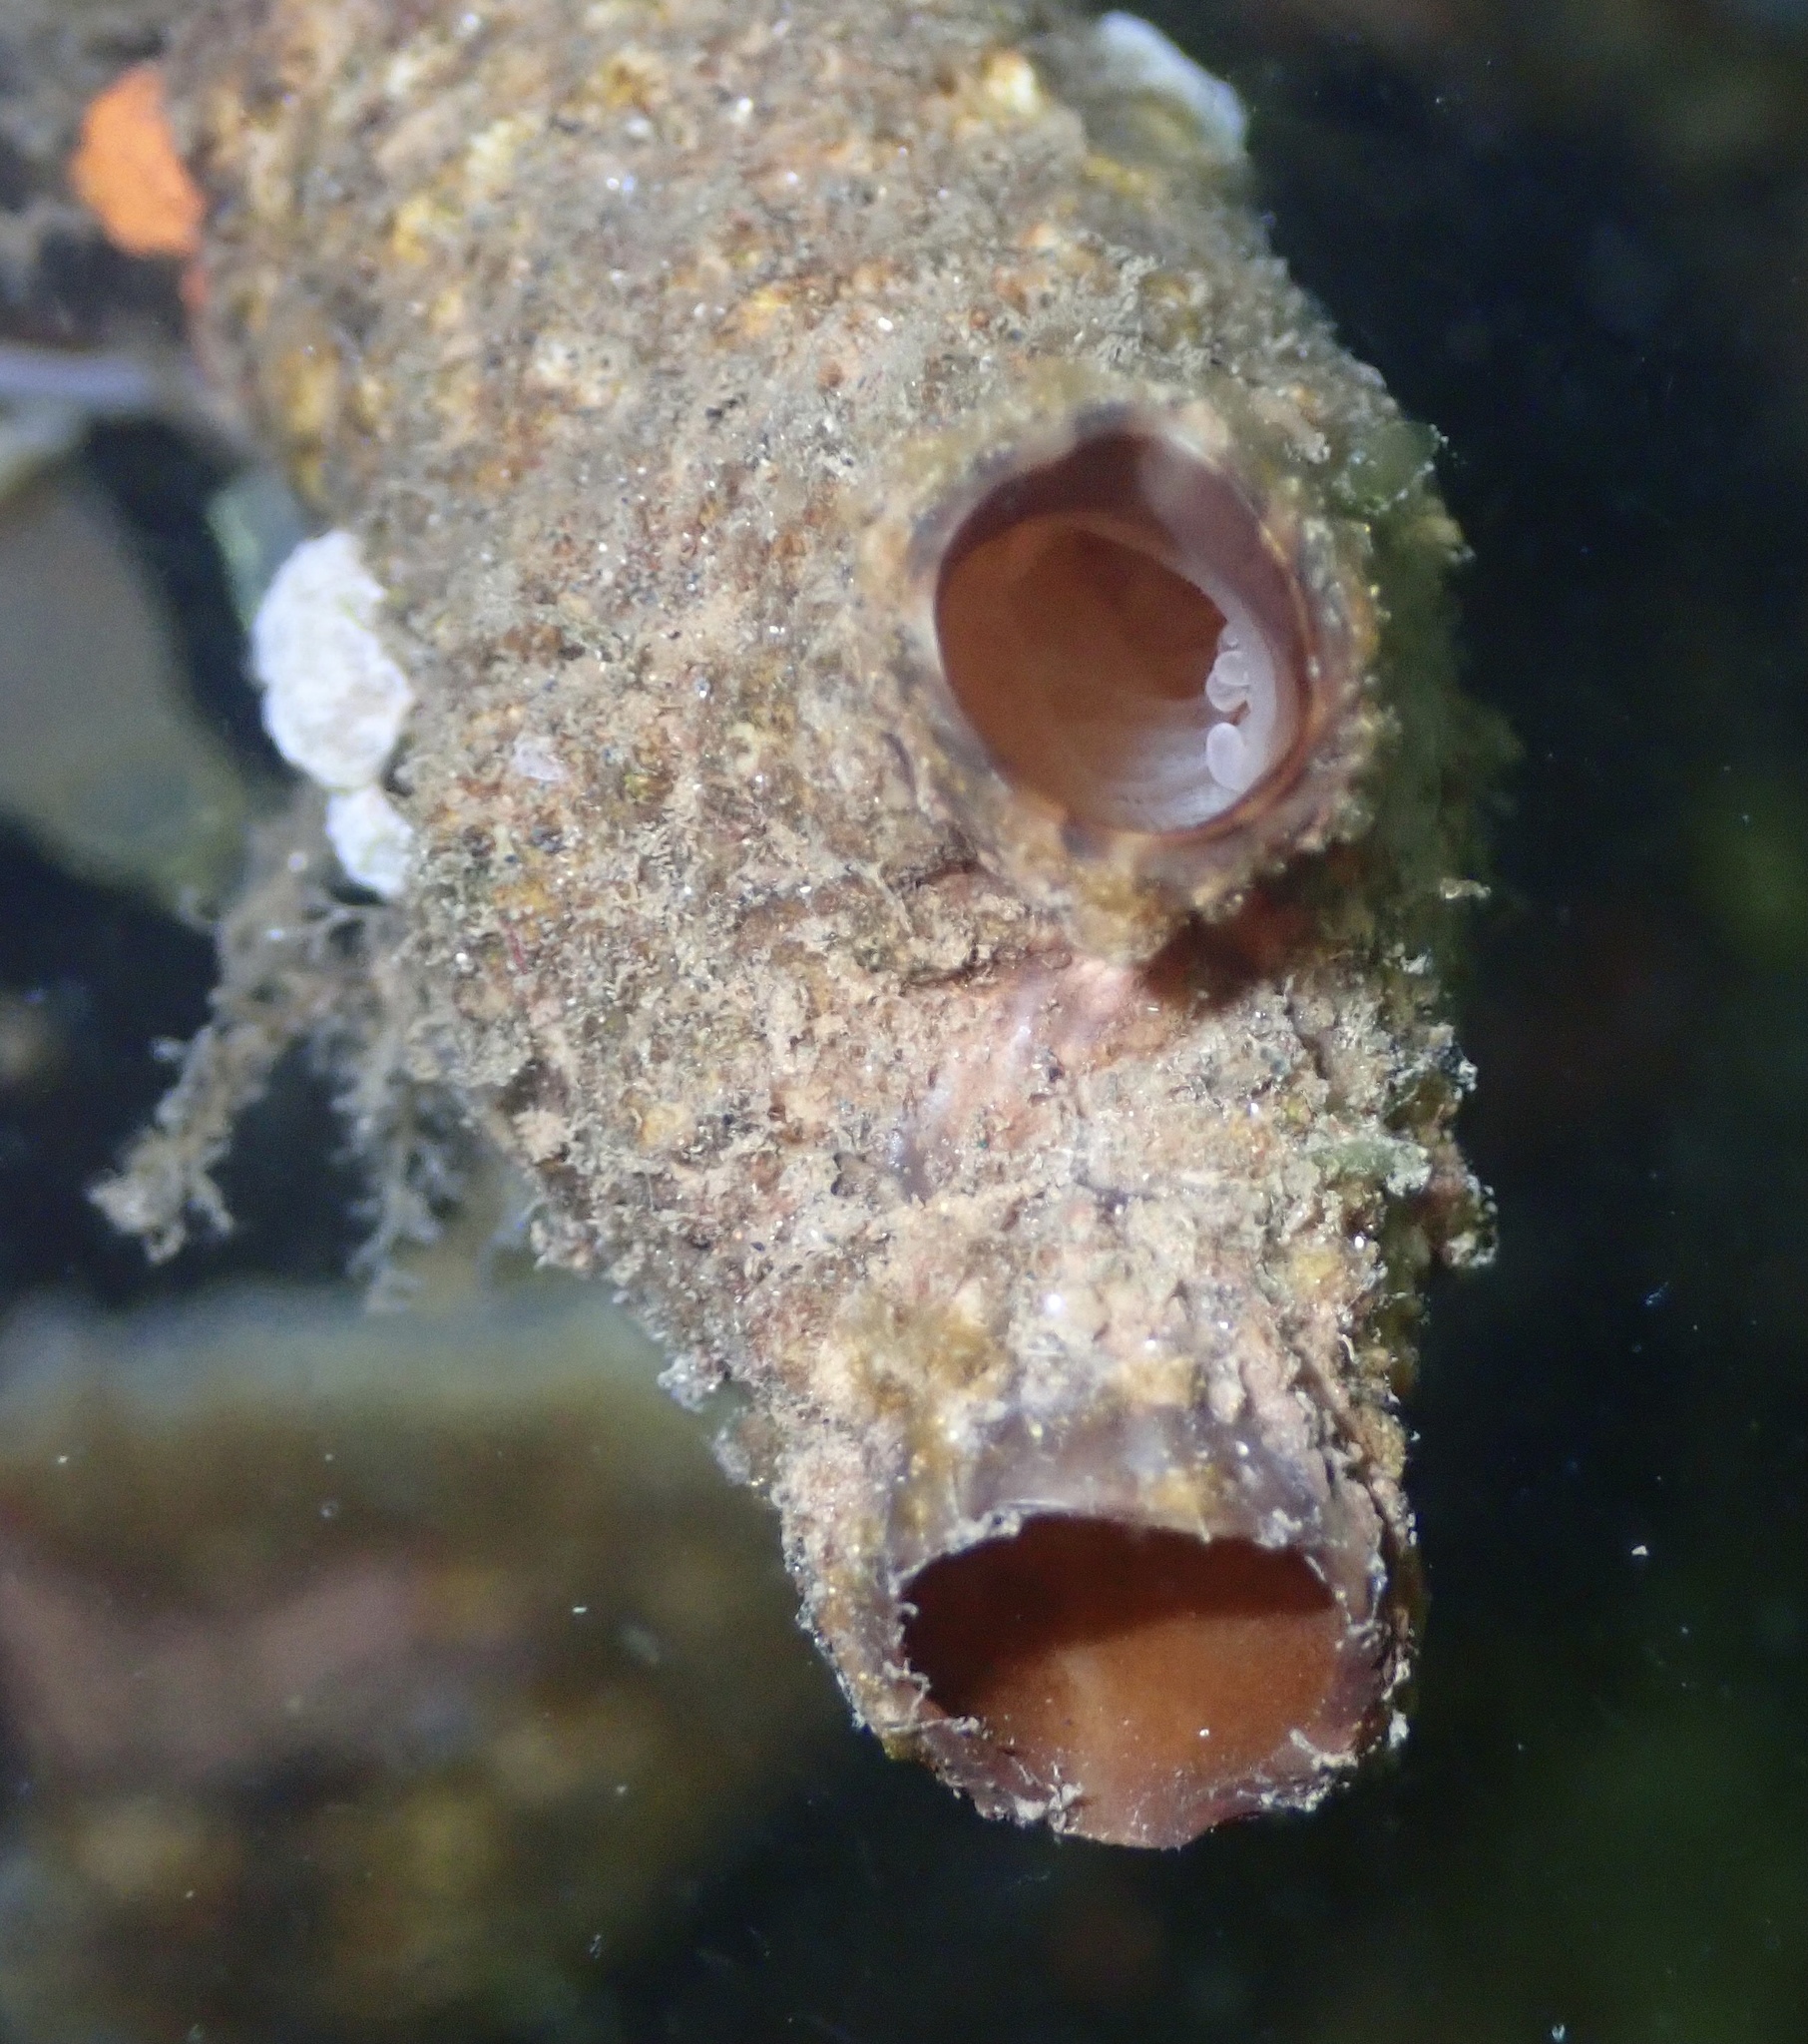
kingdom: Animalia
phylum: Chordata
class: Ascidiacea
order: Stolidobranchia
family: Styelidae
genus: Styela
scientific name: Styela clava
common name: Leathery sea squirt
